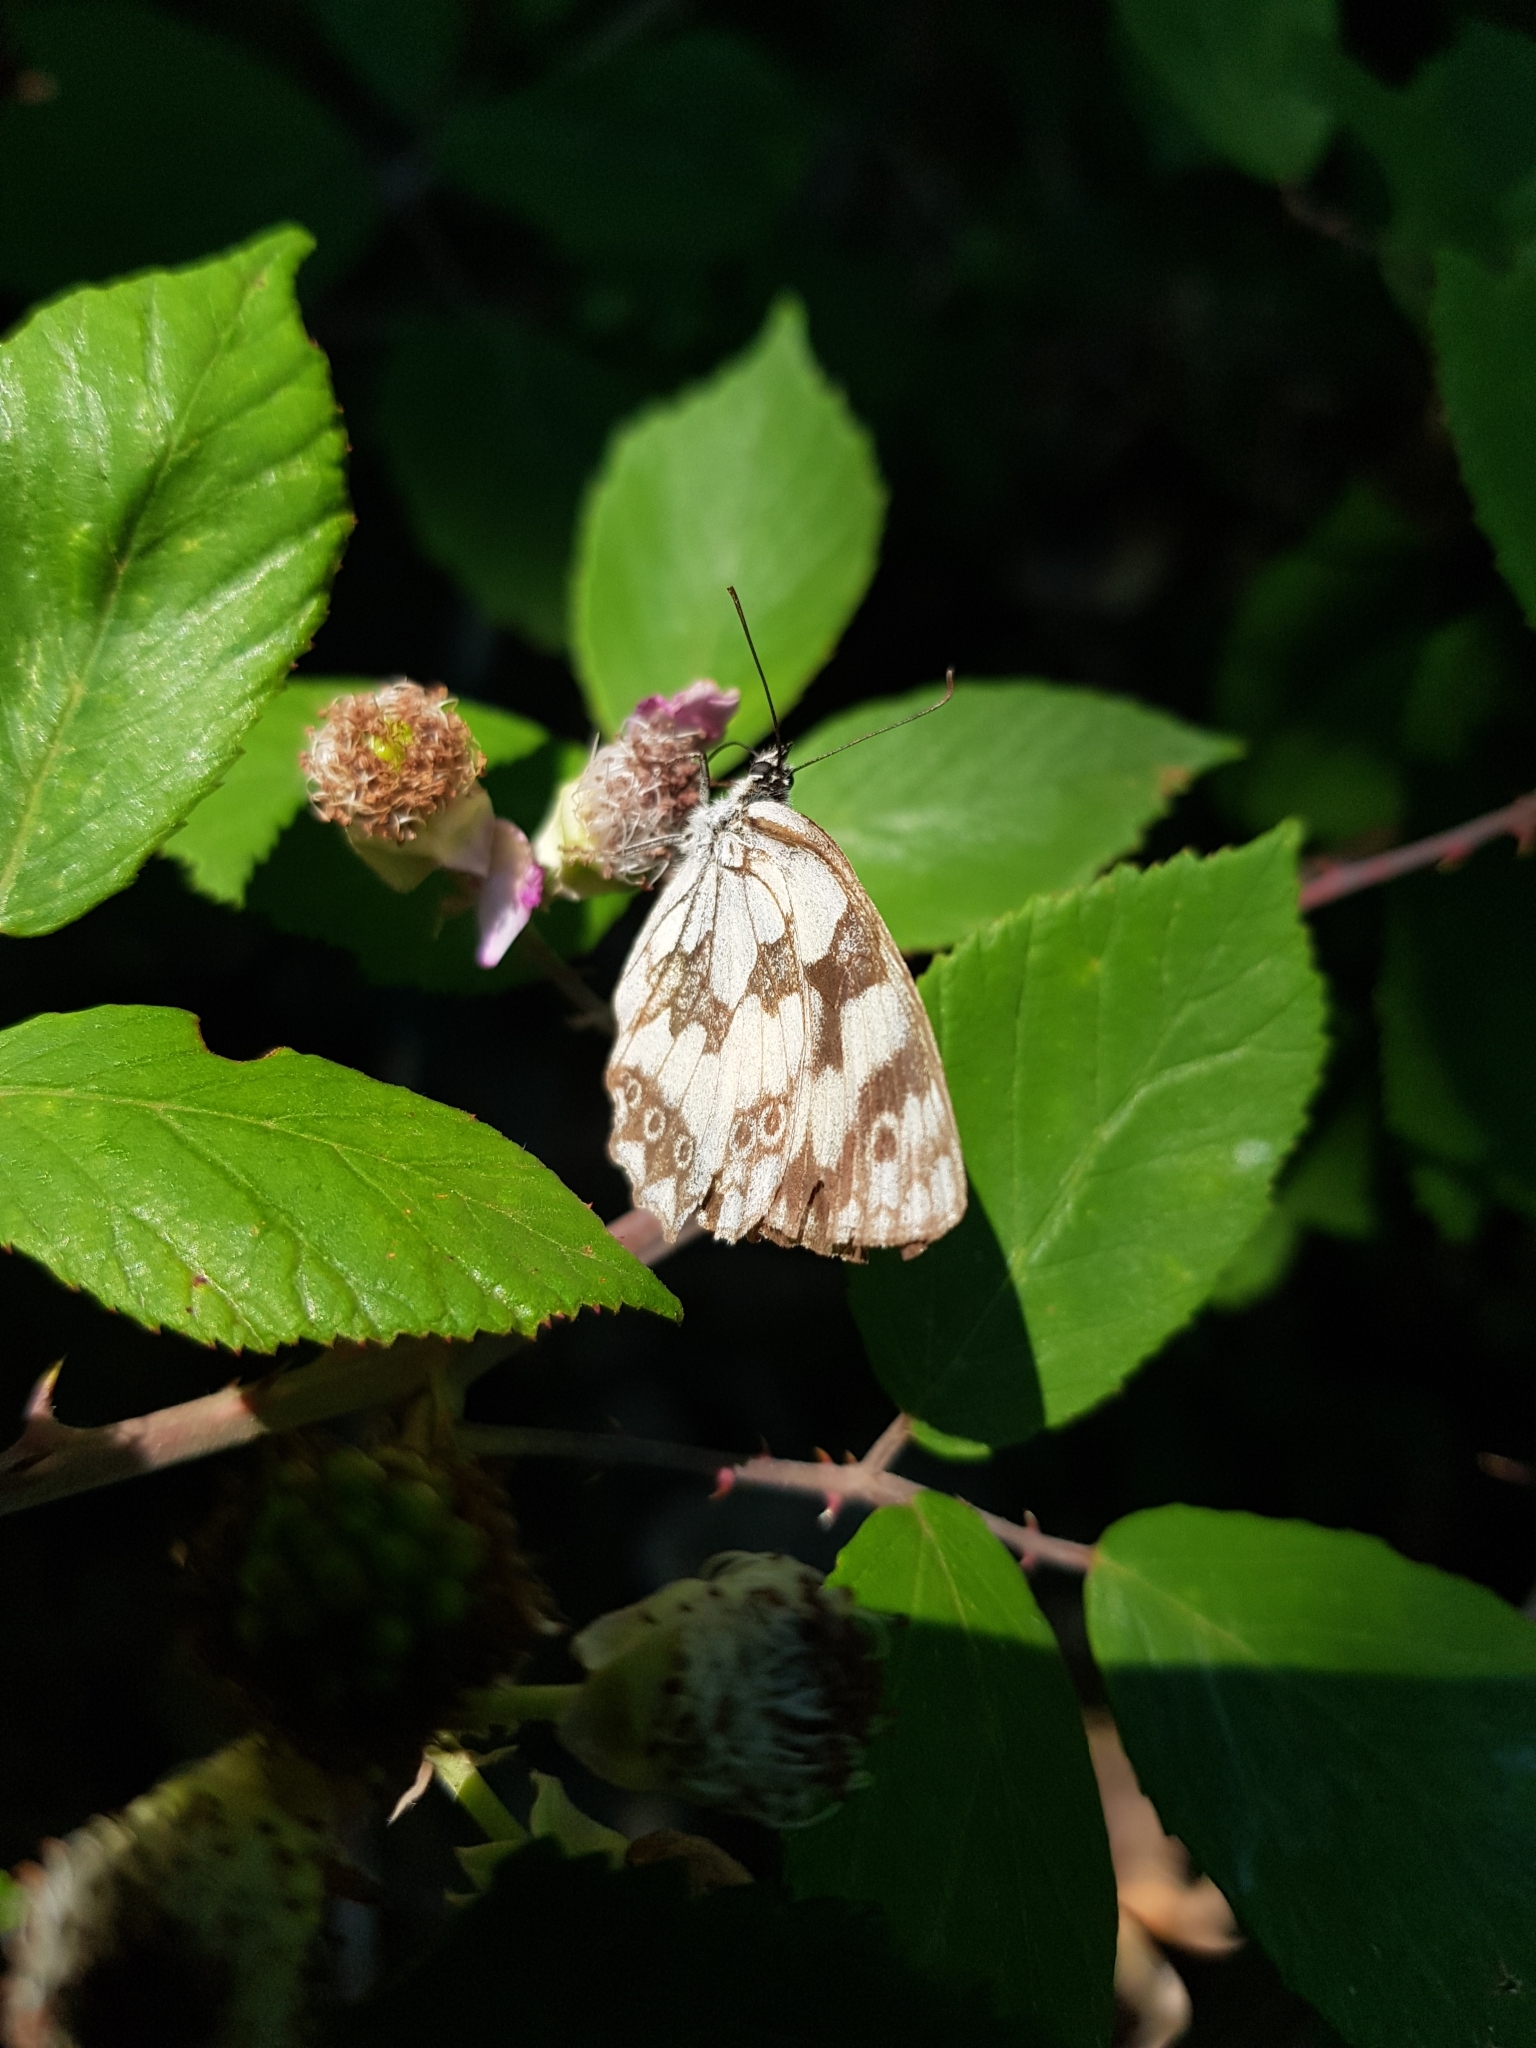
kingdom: Animalia
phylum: Arthropoda
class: Insecta
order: Lepidoptera
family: Nymphalidae
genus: Melanargia
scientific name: Melanargia galathea
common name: Marbled white
